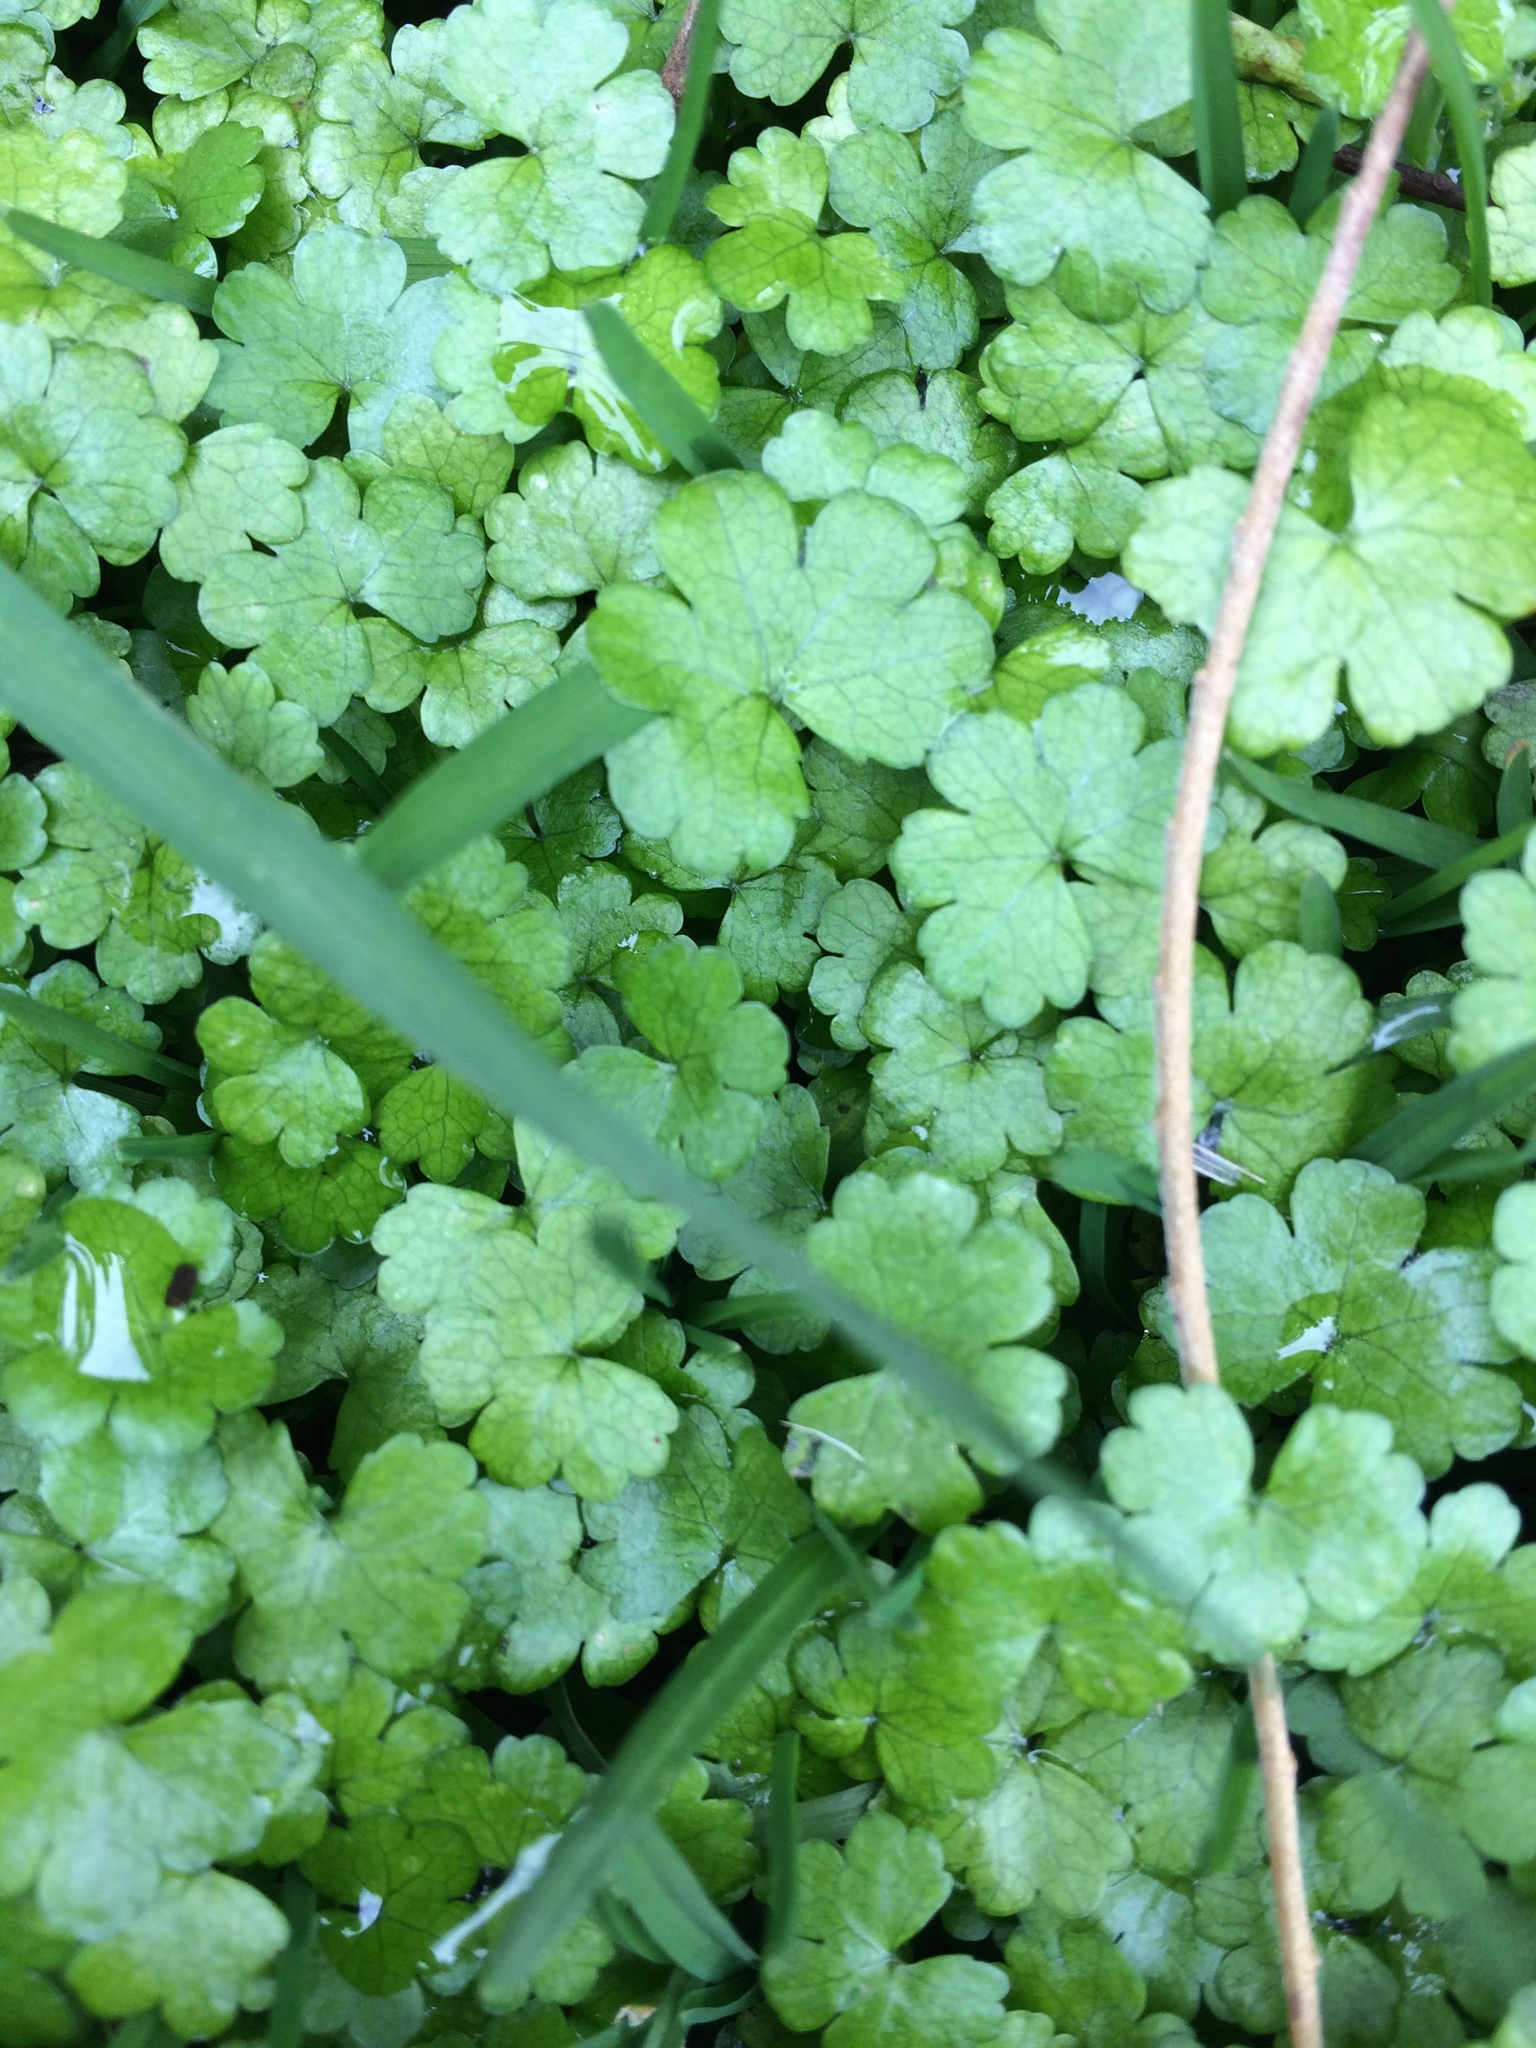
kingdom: Plantae
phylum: Tracheophyta
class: Magnoliopsida
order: Apiales
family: Araliaceae
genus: Hydrocotyle
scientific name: Hydrocotyle heteromeria
